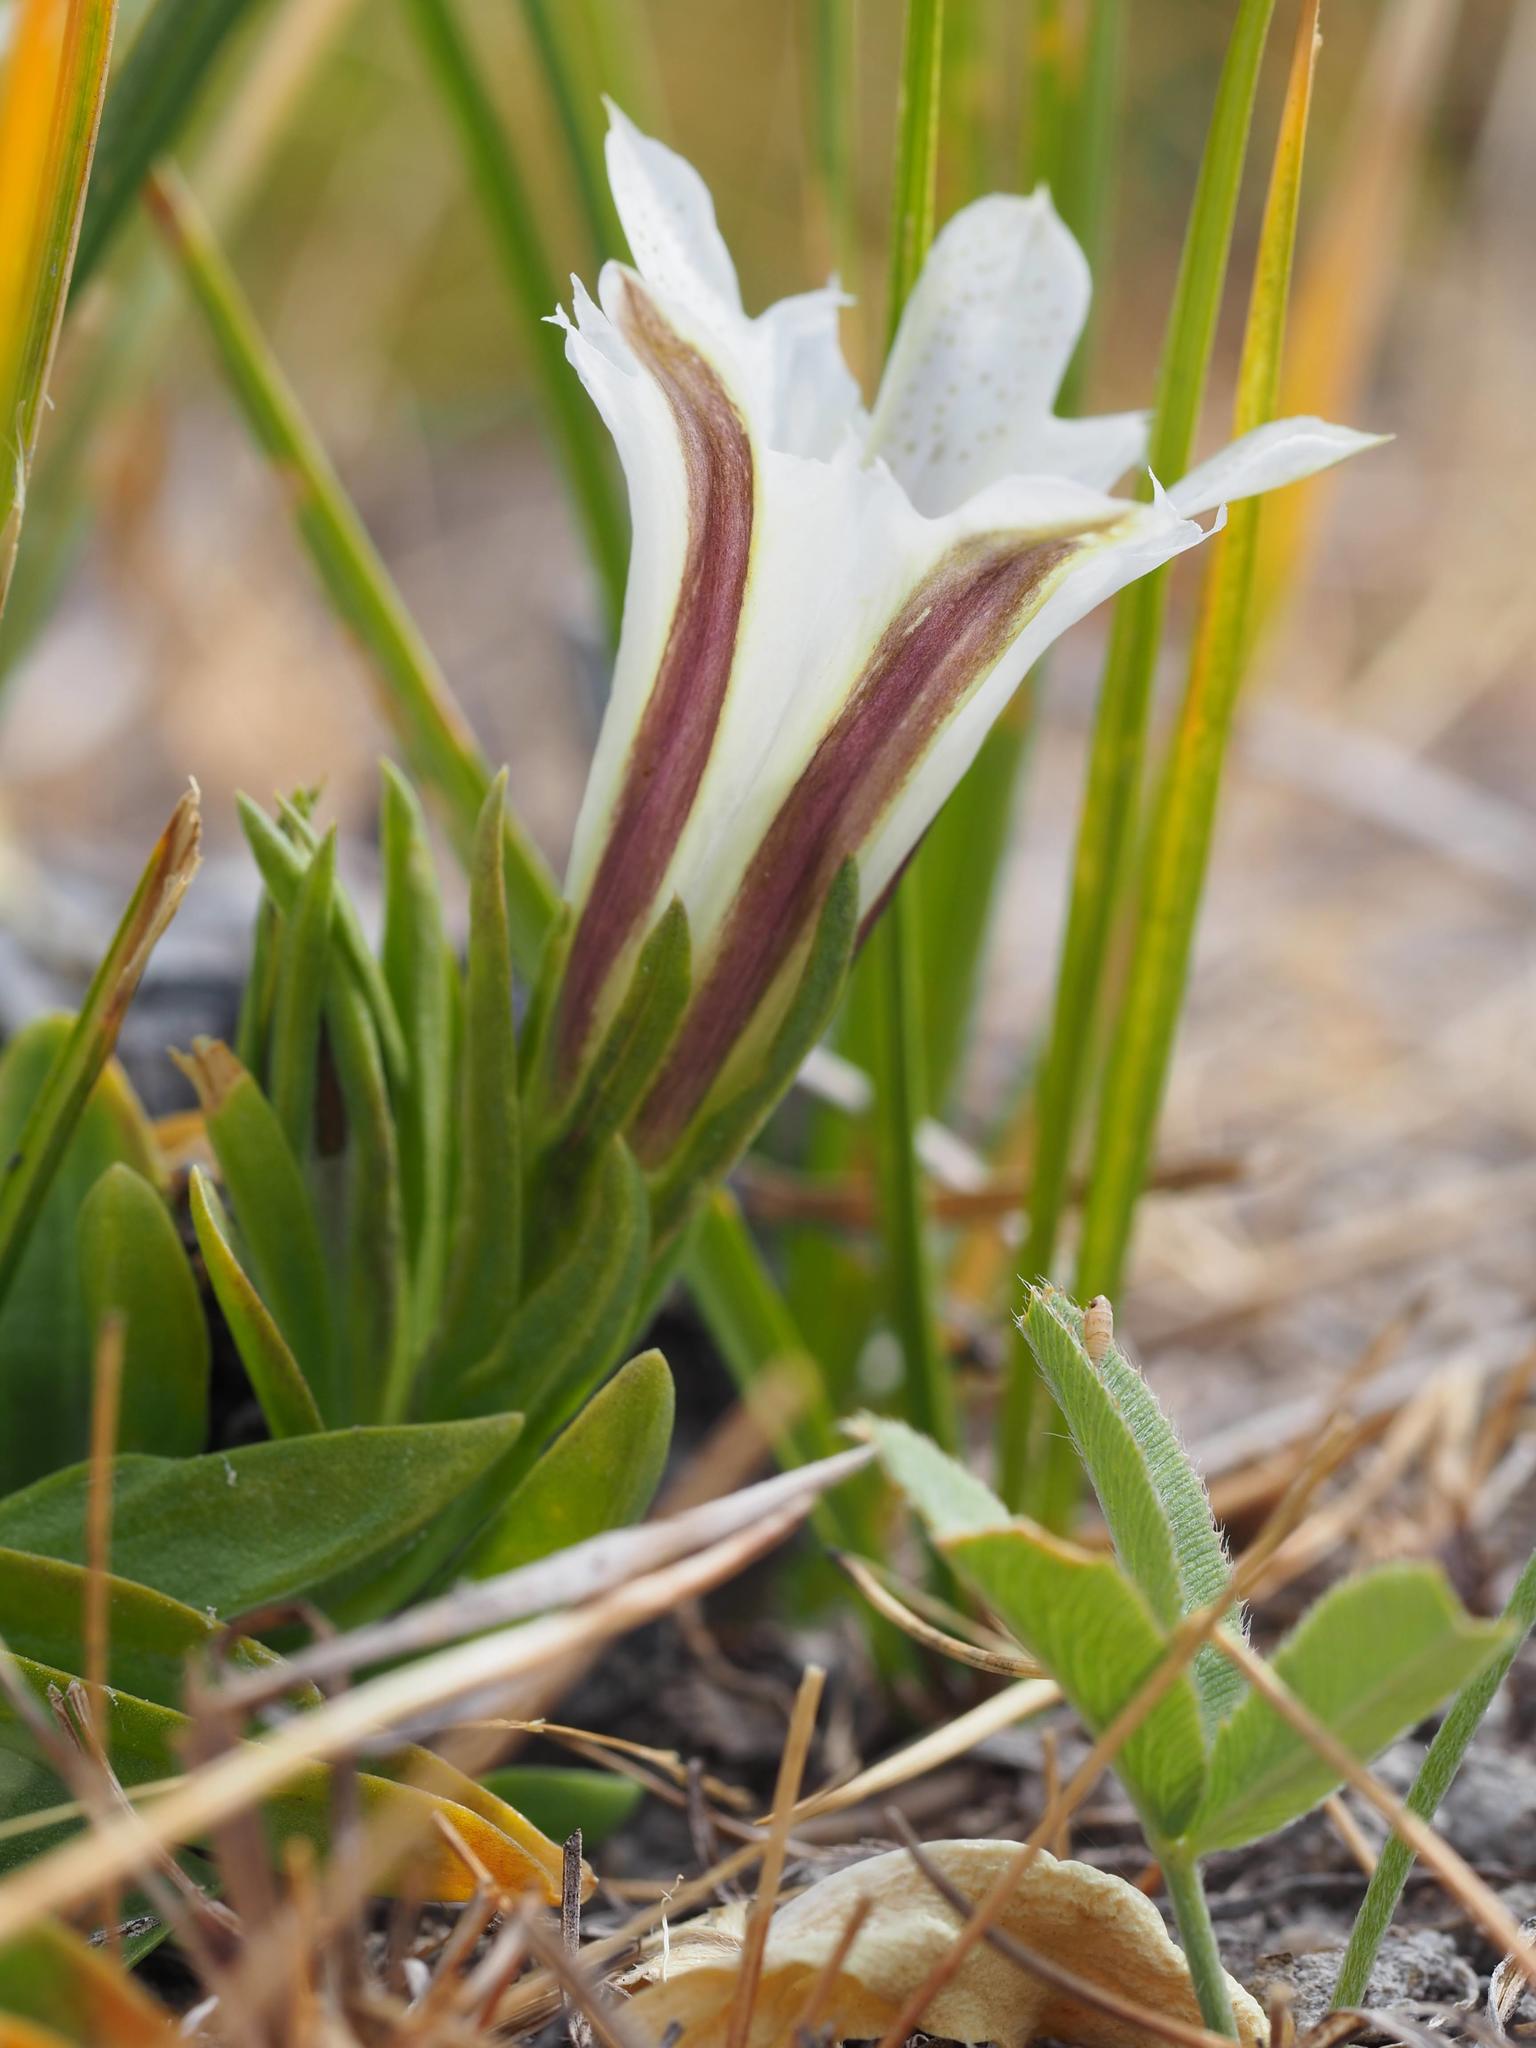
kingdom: Plantae
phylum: Tracheophyta
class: Magnoliopsida
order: Gentianales
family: Gentianaceae
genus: Gentiana
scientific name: Gentiana newberryi
